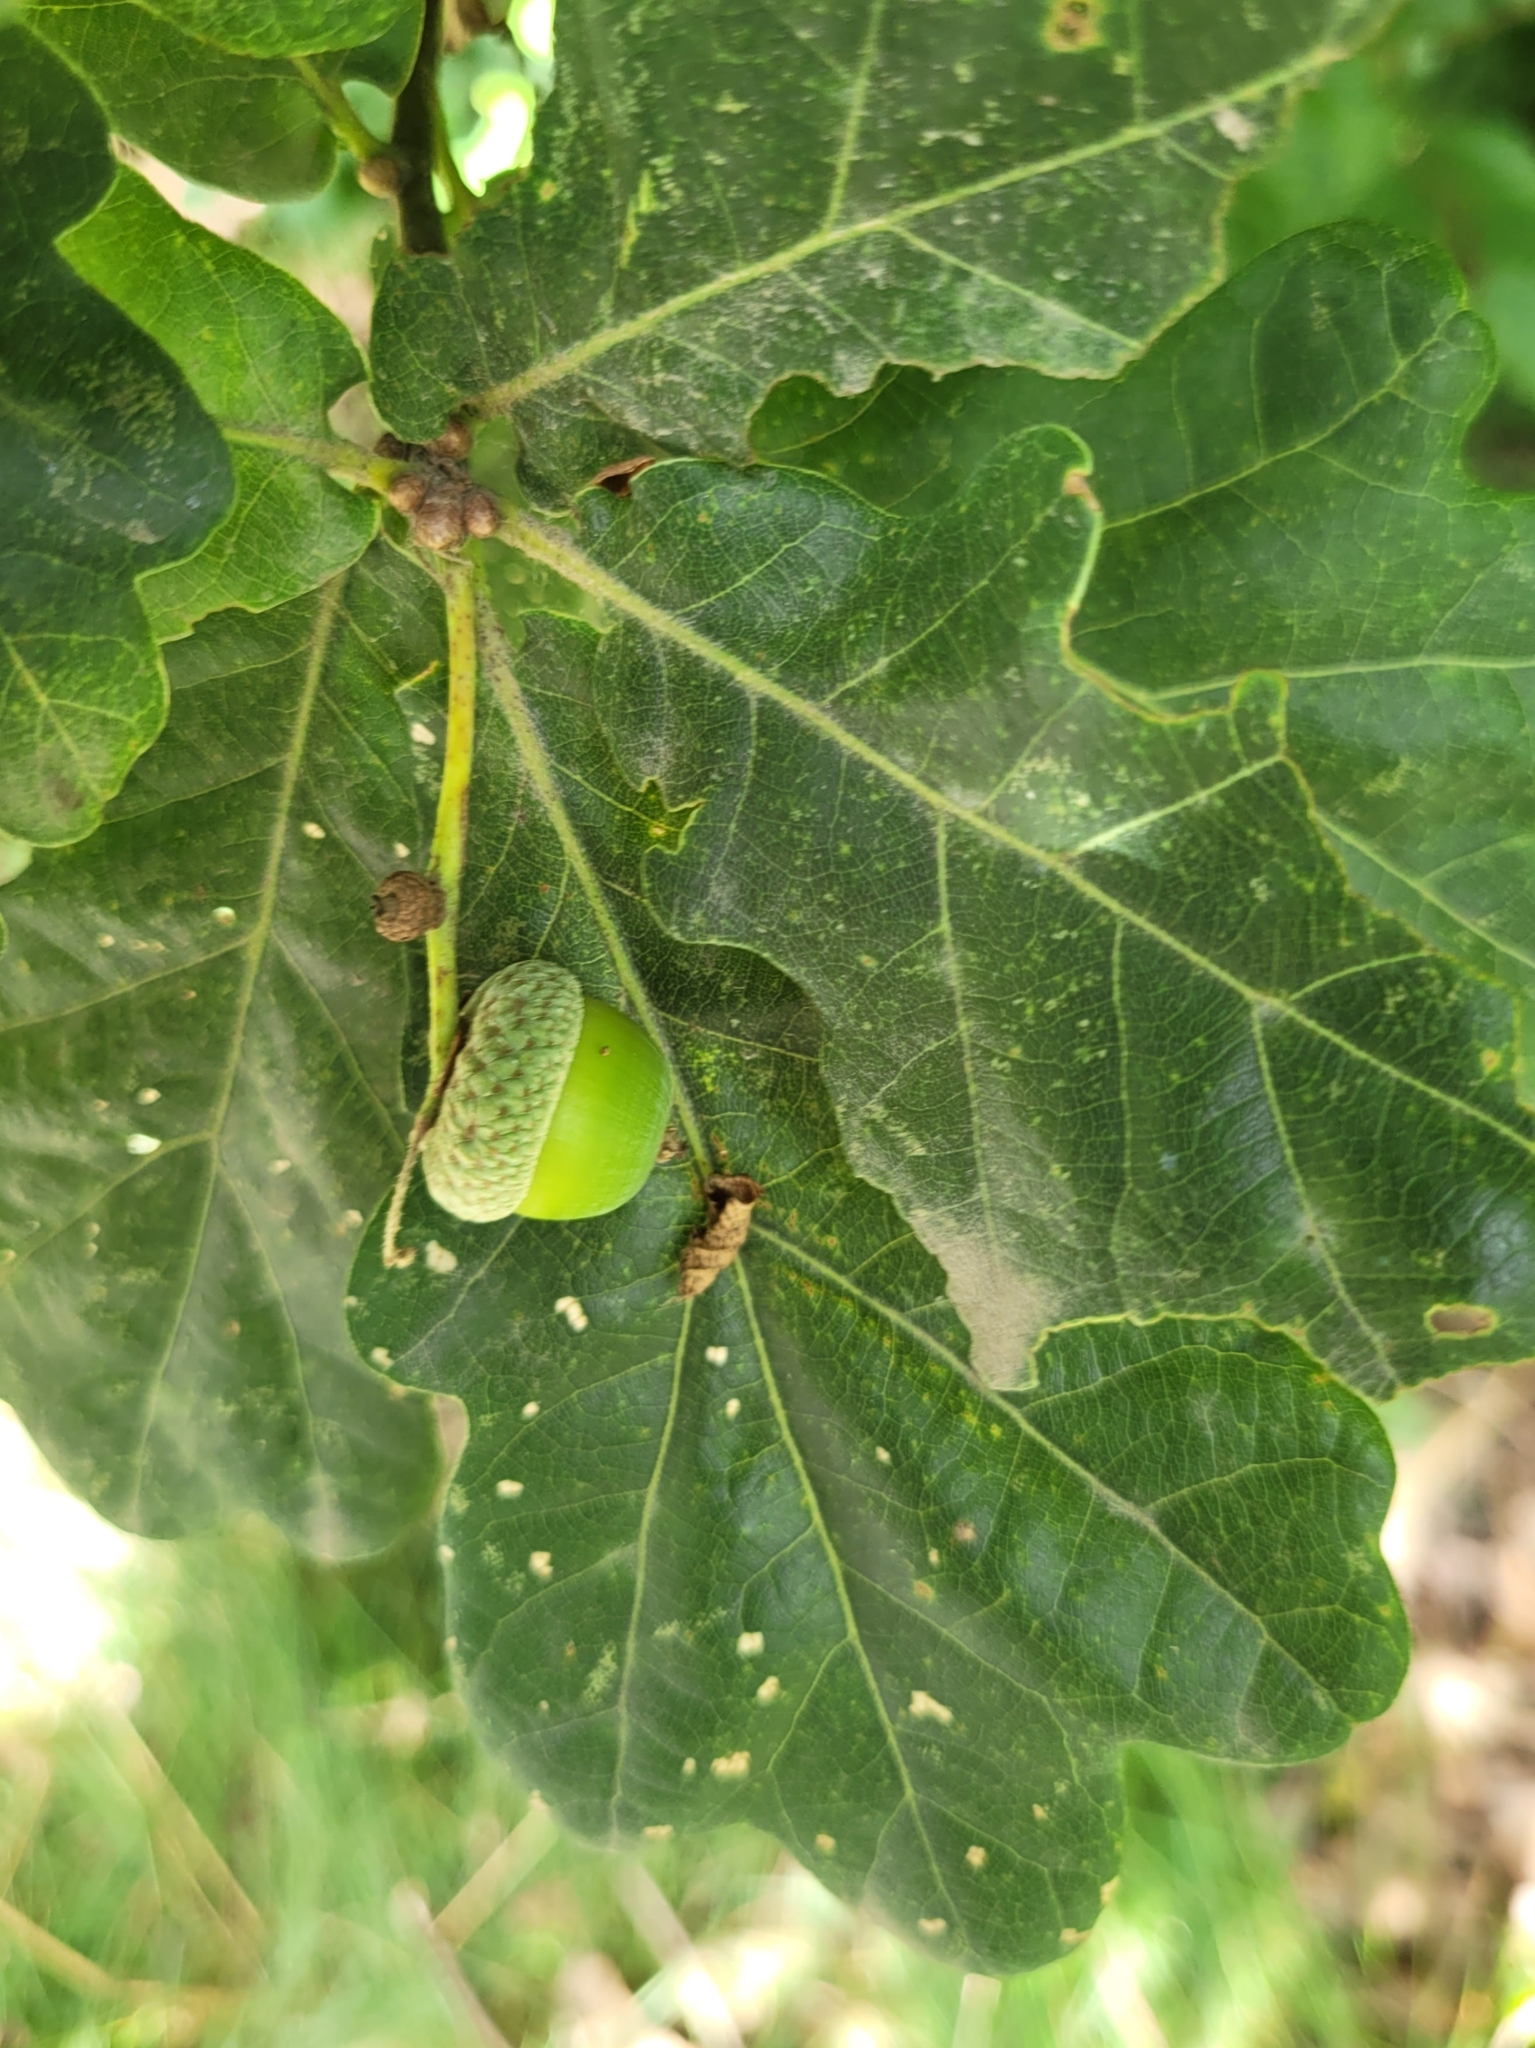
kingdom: Plantae
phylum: Tracheophyta
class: Magnoliopsida
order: Fagales
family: Fagaceae
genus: Quercus
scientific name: Quercus robur
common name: Pedunculate oak
